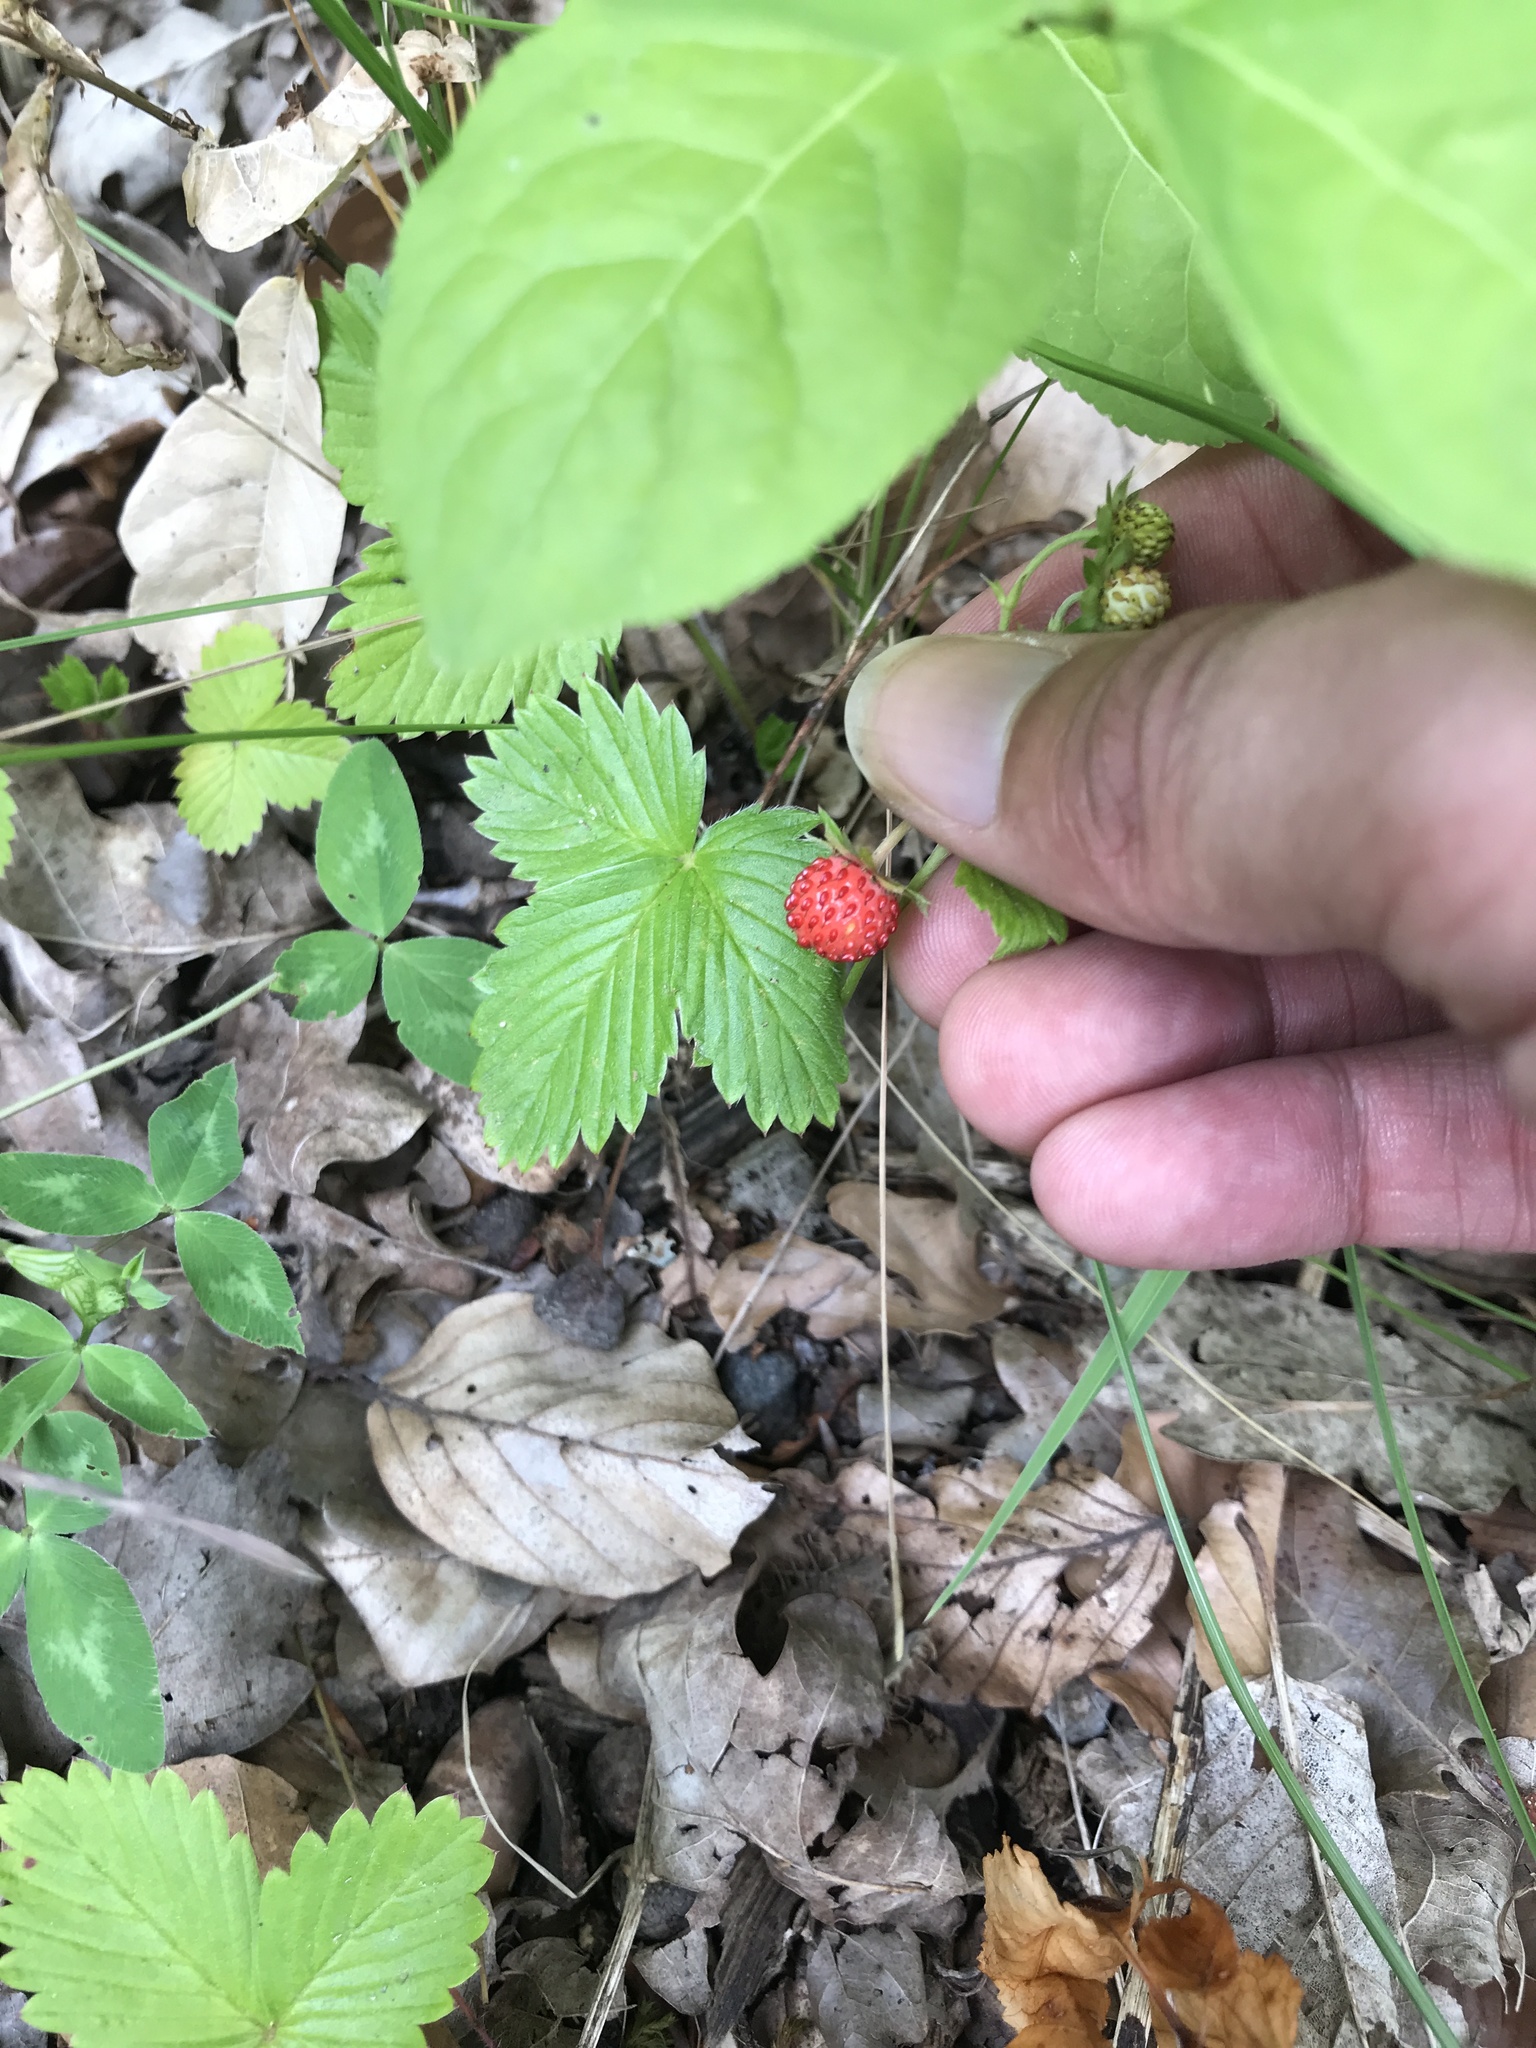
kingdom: Plantae
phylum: Tracheophyta
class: Magnoliopsida
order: Rosales
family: Rosaceae
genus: Fragaria
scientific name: Fragaria vesca
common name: Wild strawberry
